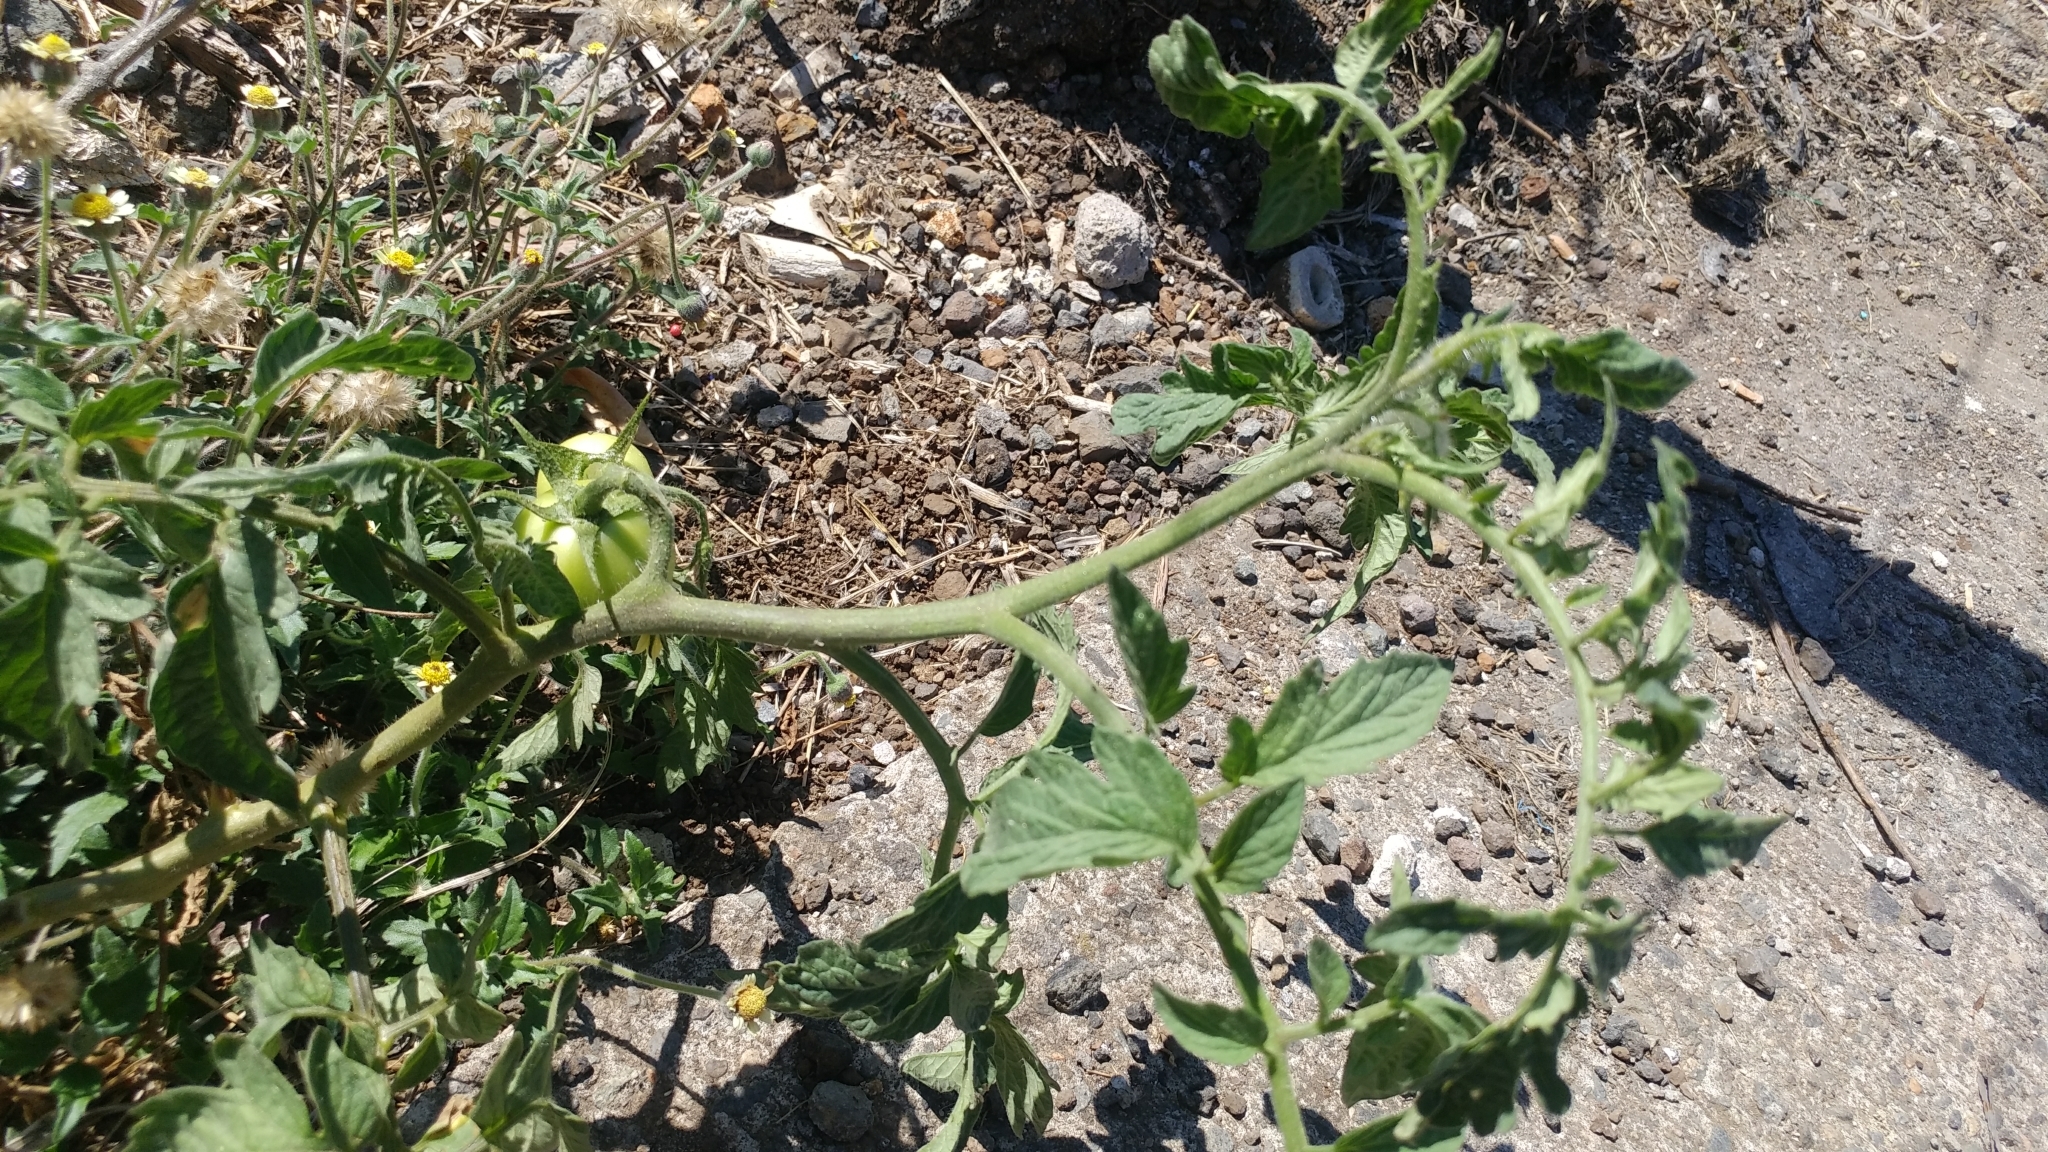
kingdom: Plantae
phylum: Tracheophyta
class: Magnoliopsida
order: Solanales
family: Solanaceae
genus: Solanum
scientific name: Solanum lycopersicum
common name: Garden tomato
